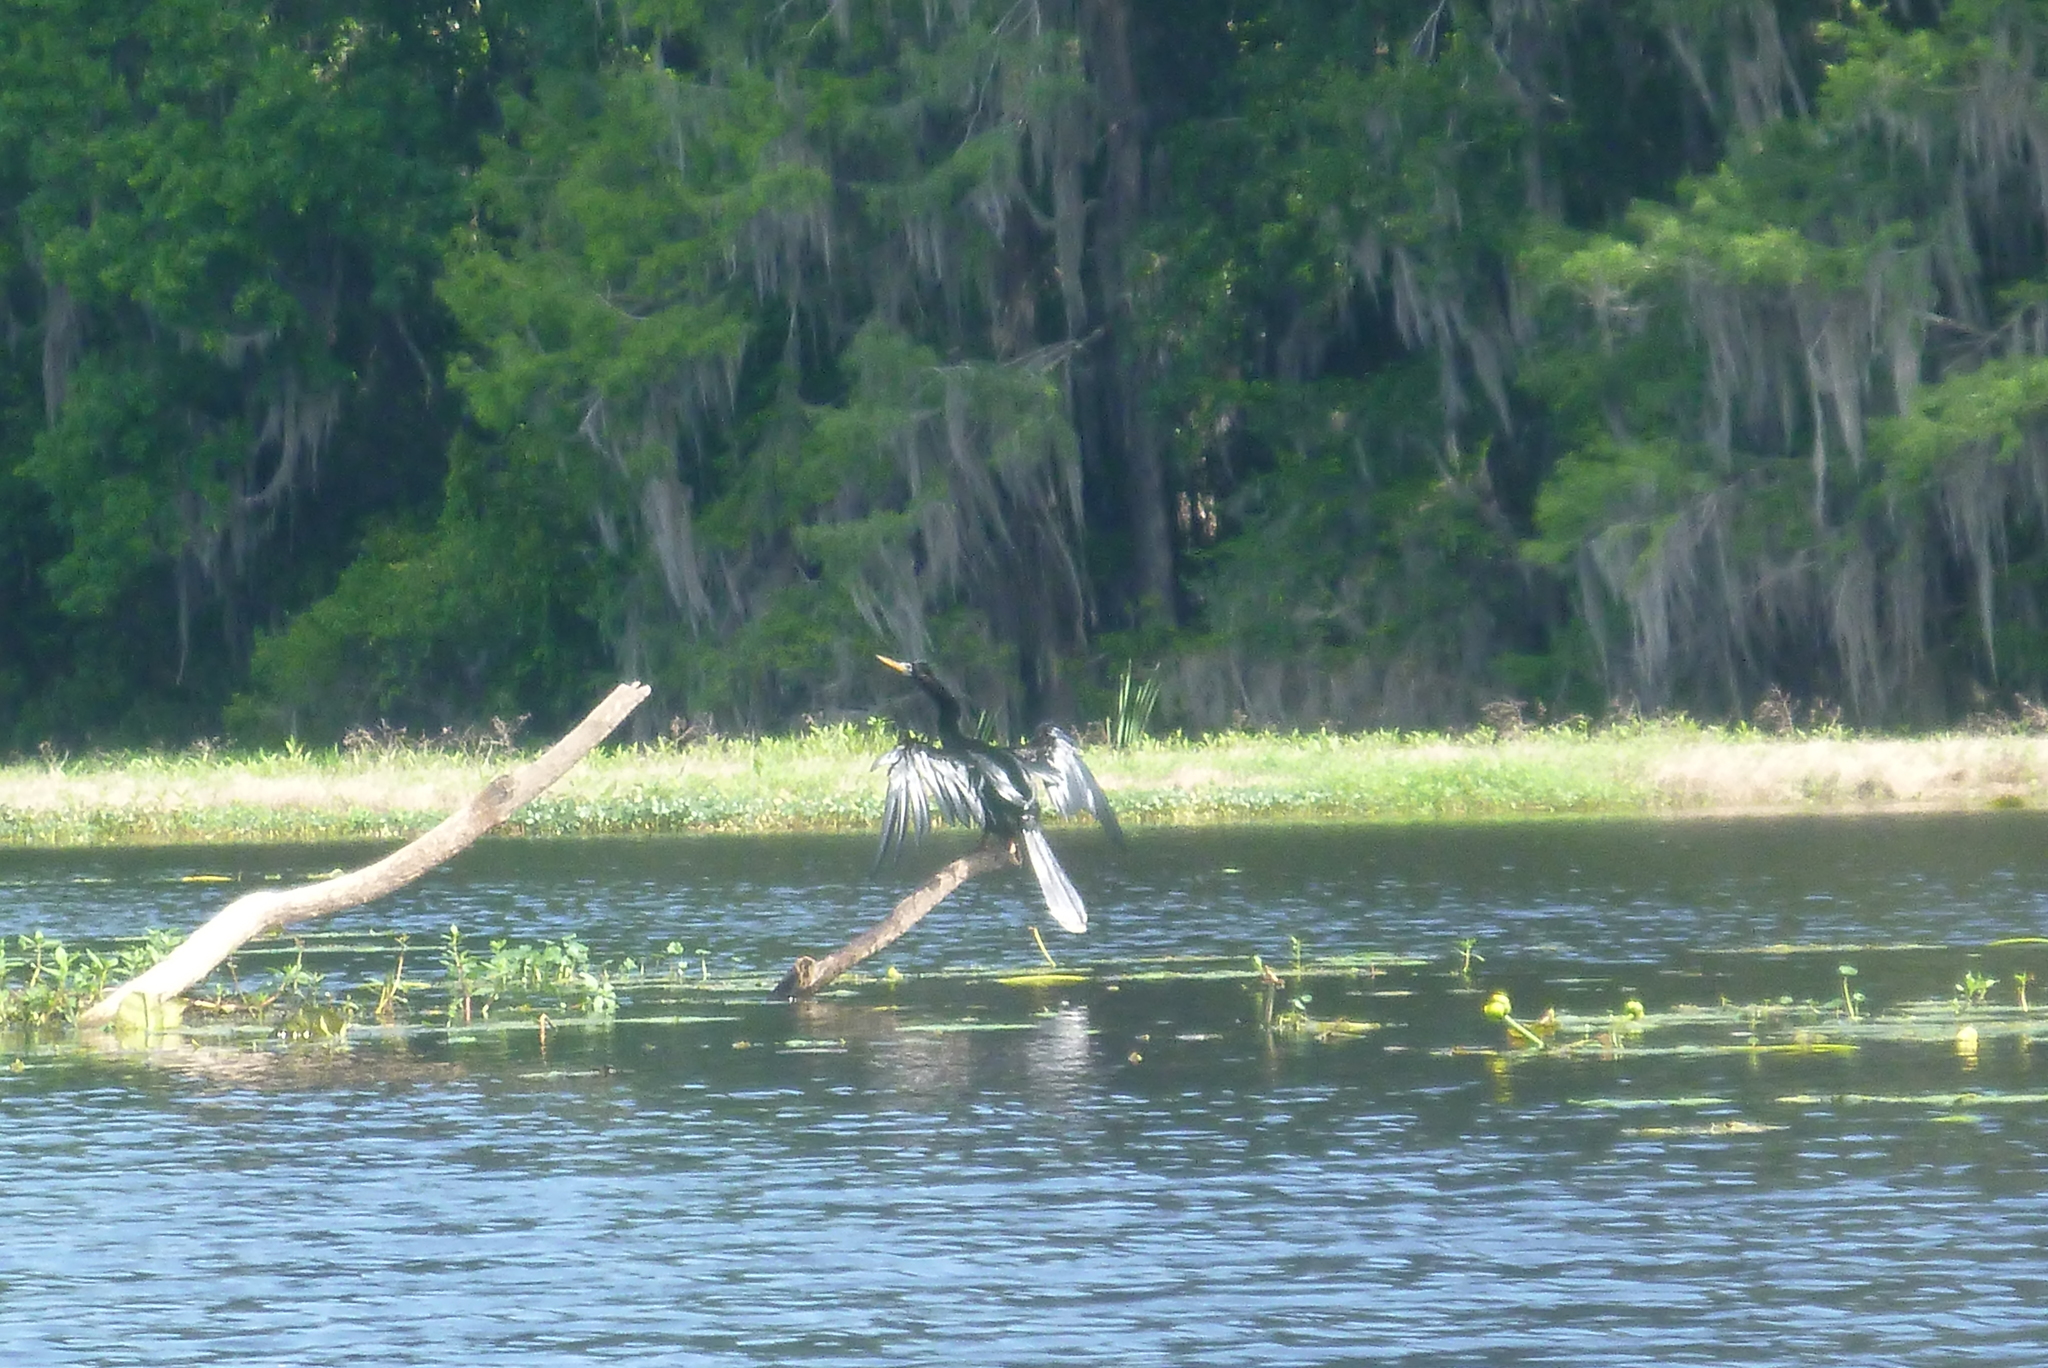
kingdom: Animalia
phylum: Chordata
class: Aves
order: Suliformes
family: Anhingidae
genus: Anhinga
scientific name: Anhinga anhinga
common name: Anhinga
